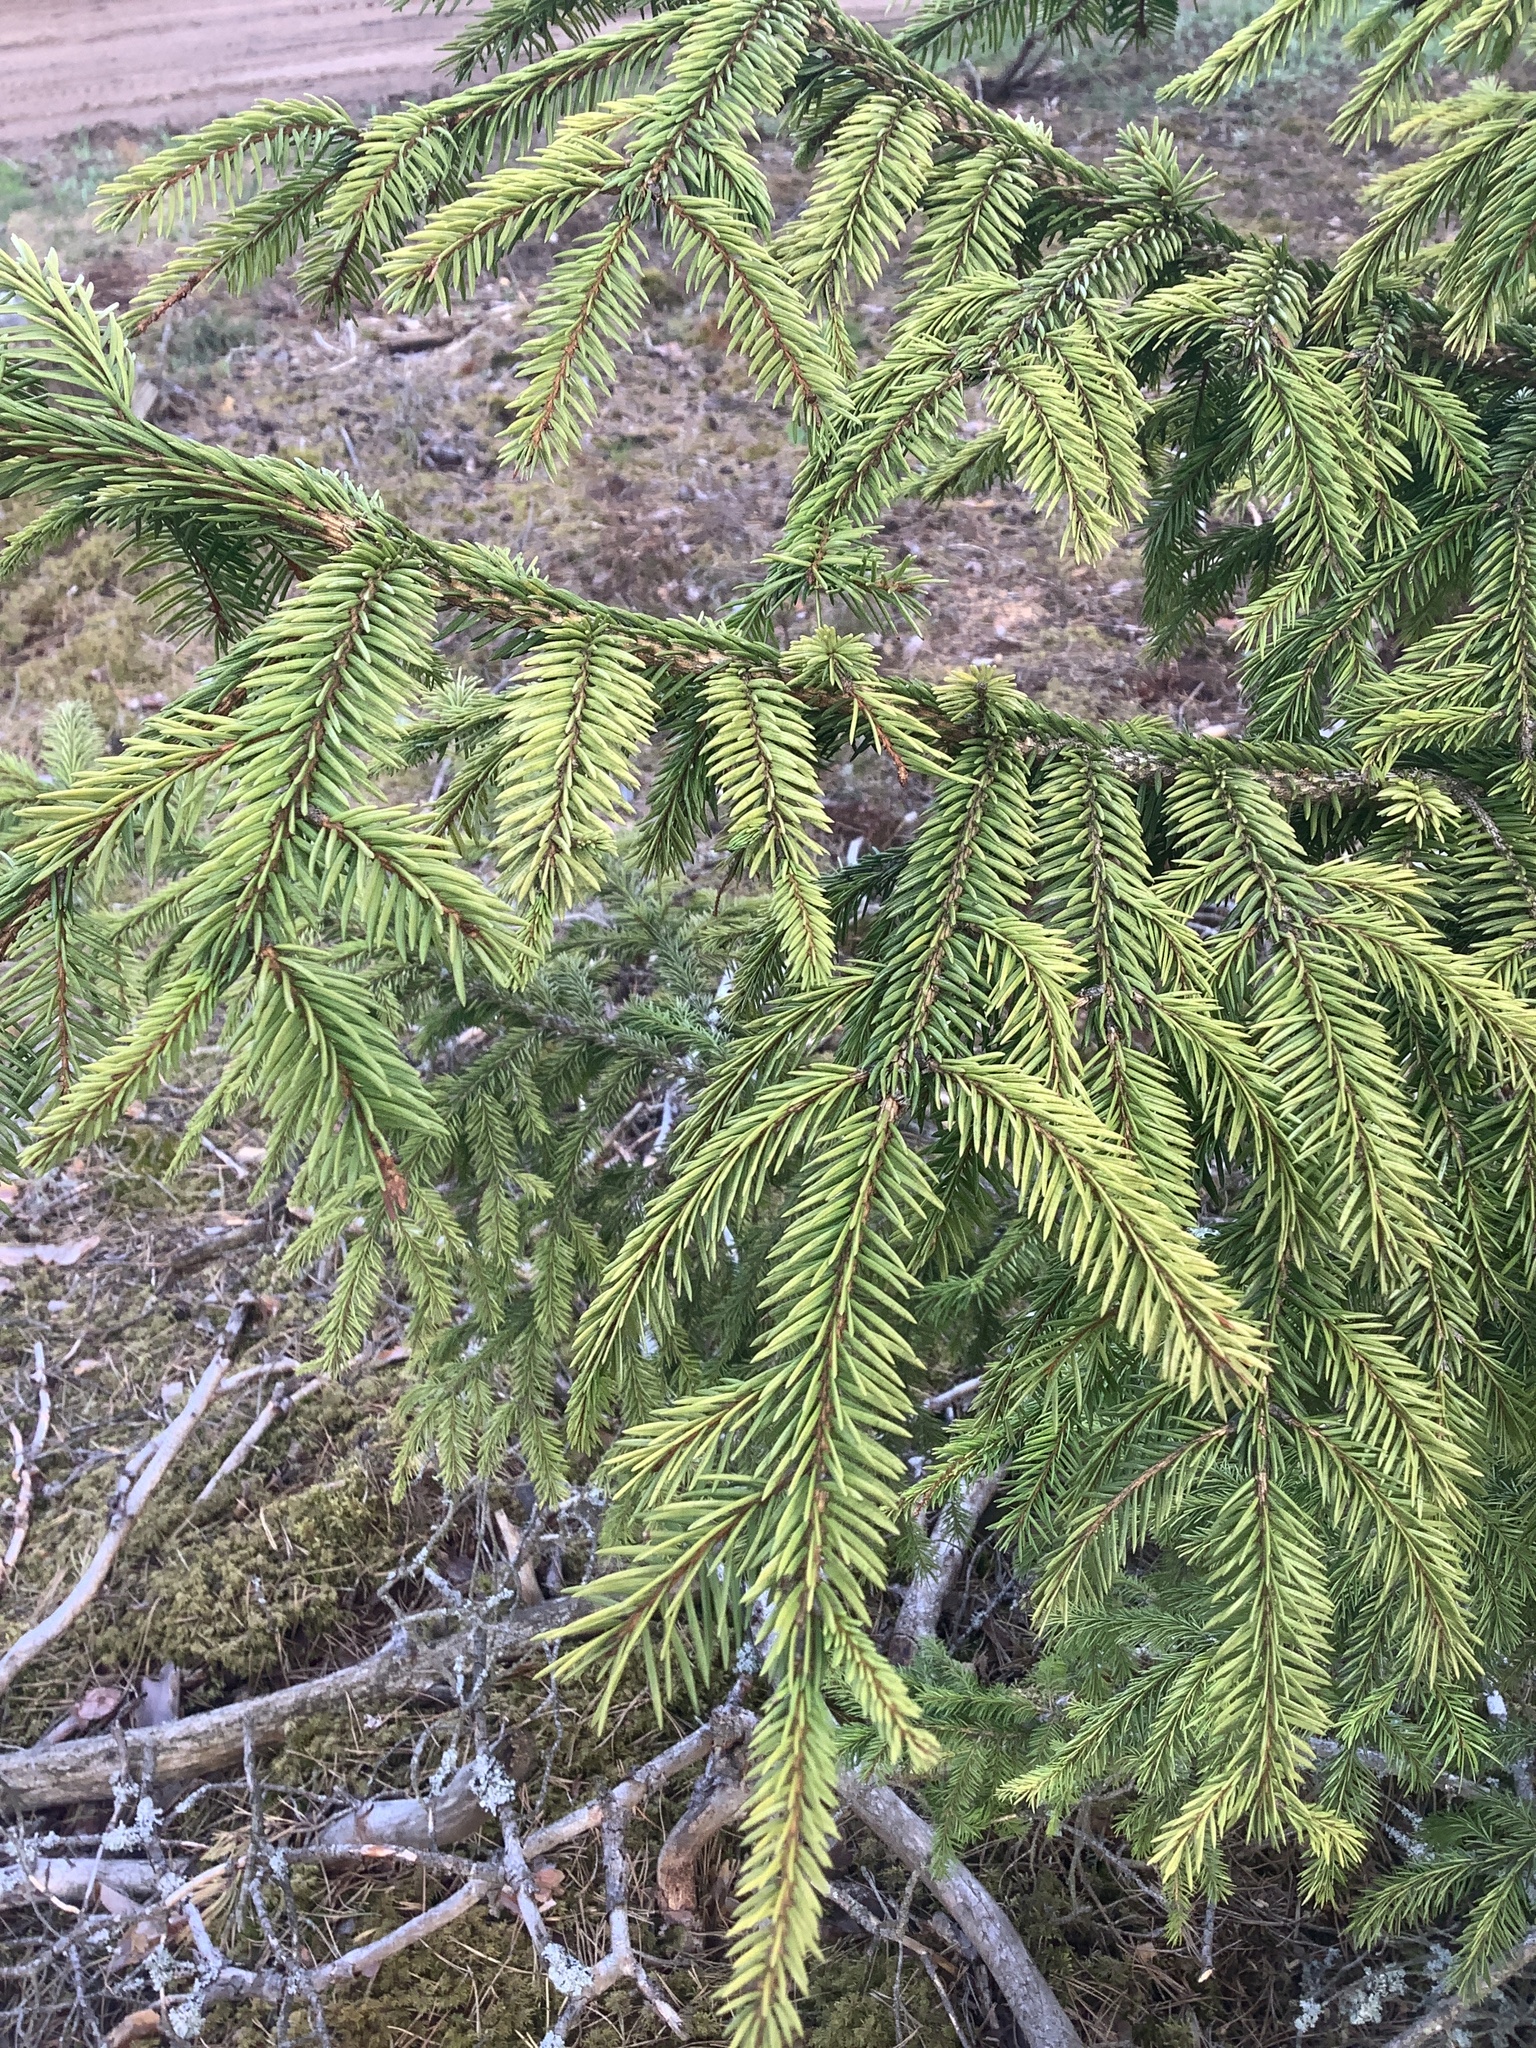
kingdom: Plantae
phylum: Tracheophyta
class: Pinopsida
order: Pinales
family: Pinaceae
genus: Picea
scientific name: Picea abies
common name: Norway spruce
